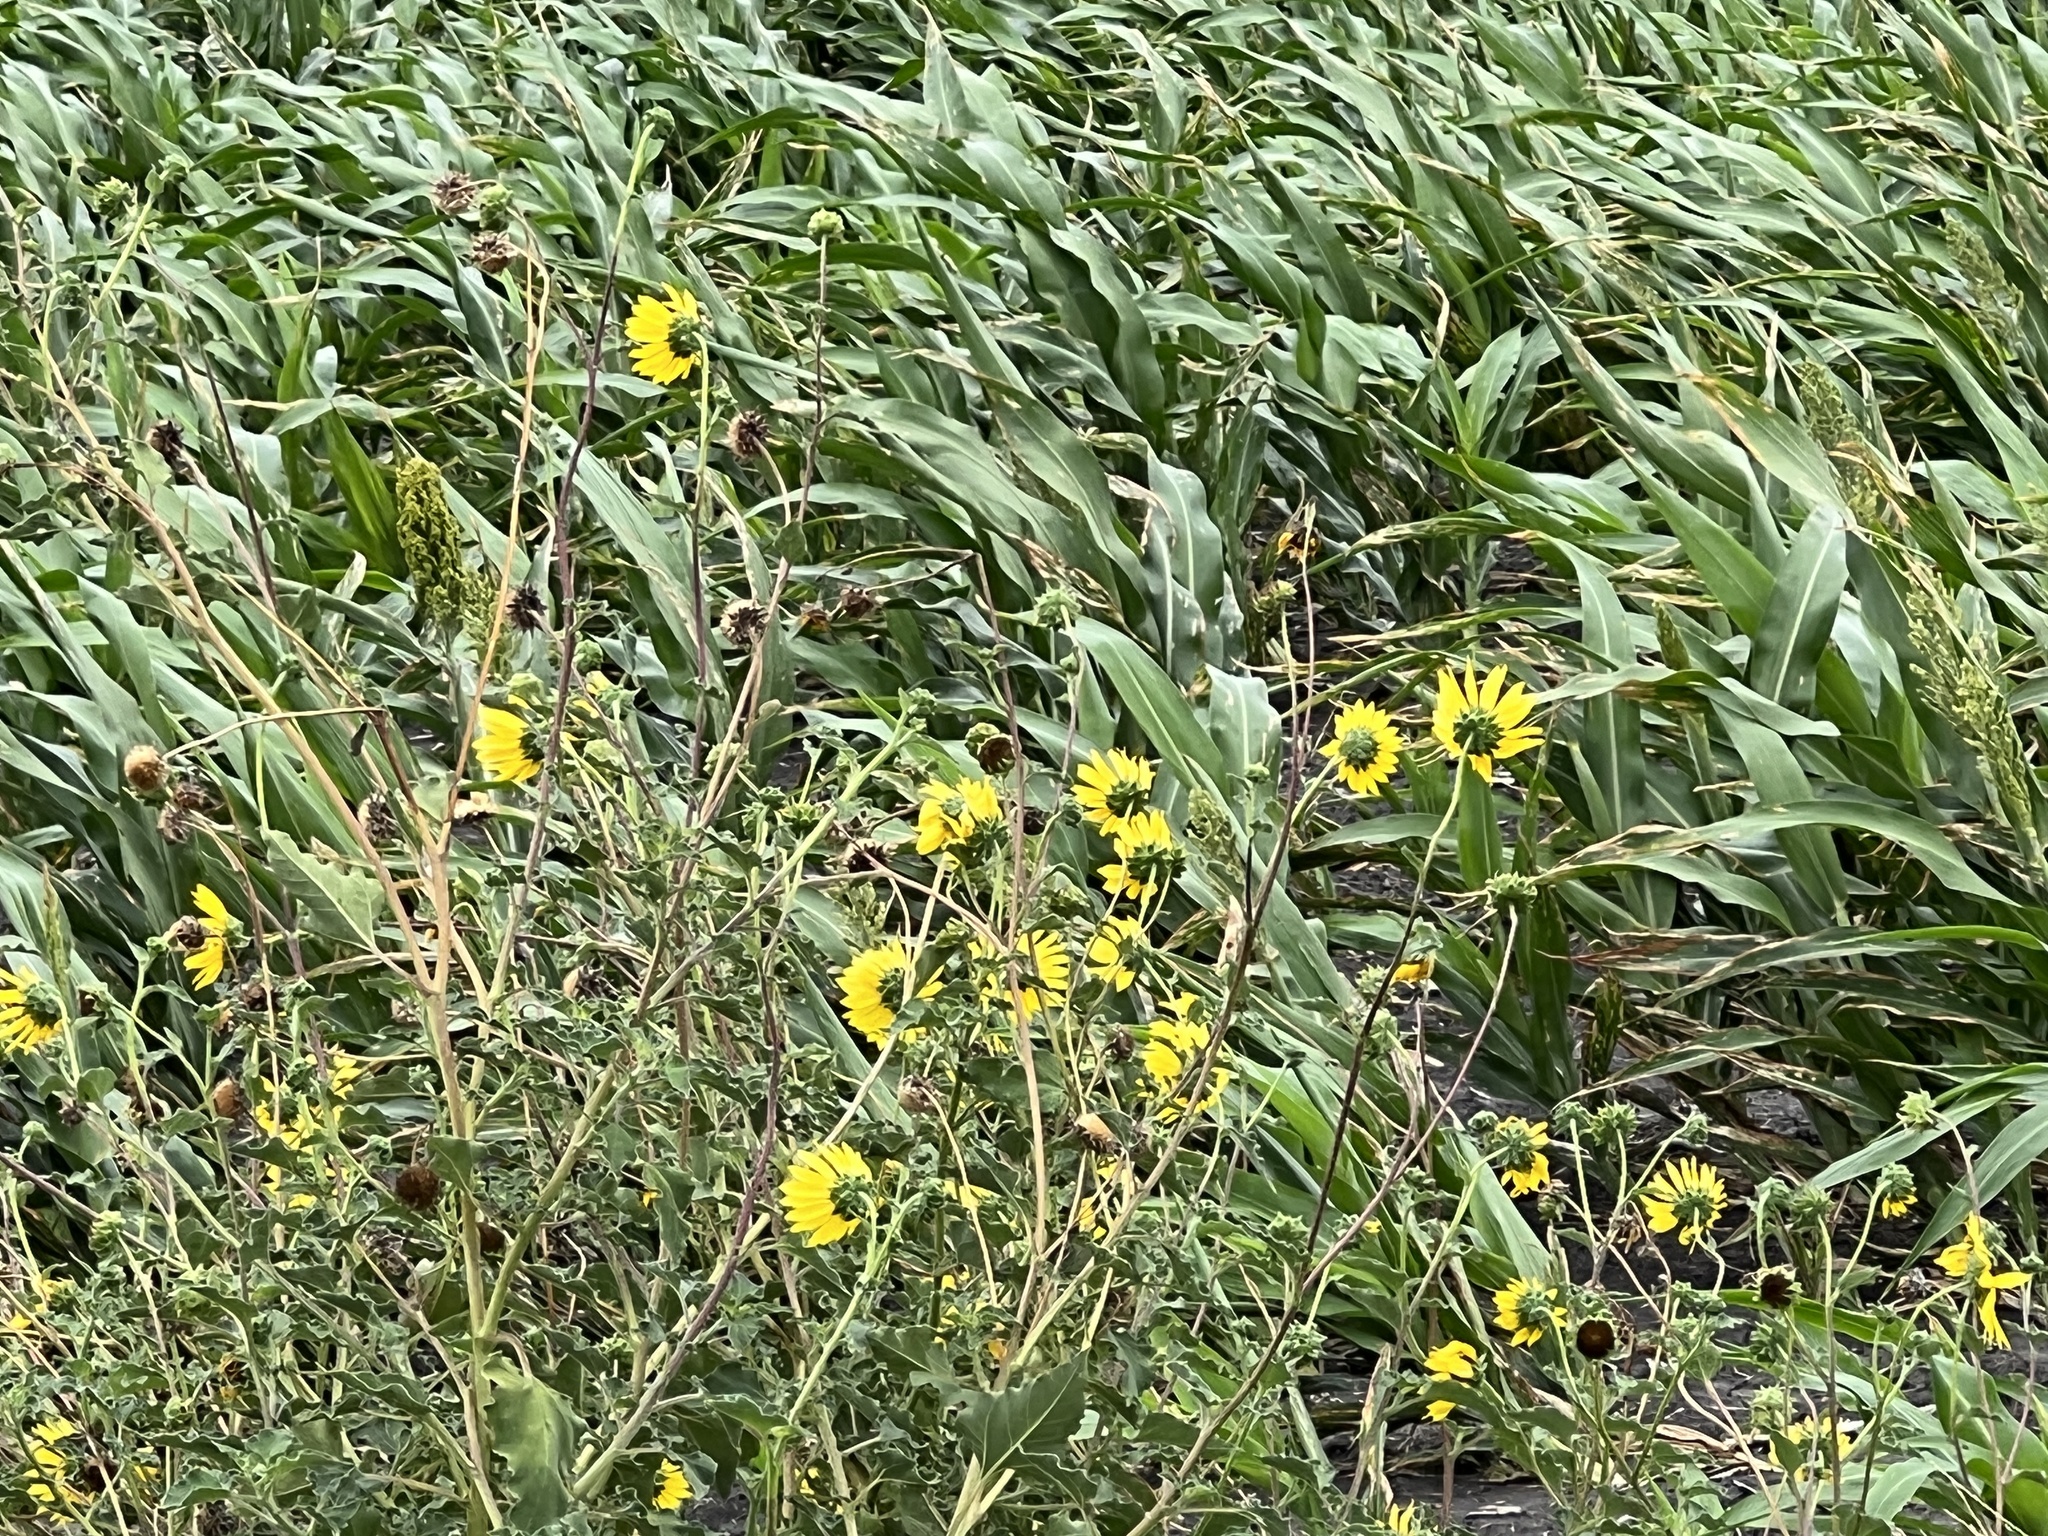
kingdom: Plantae
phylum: Tracheophyta
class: Magnoliopsida
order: Asterales
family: Asteraceae
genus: Helianthus
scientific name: Helianthus annuus
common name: Sunflower
